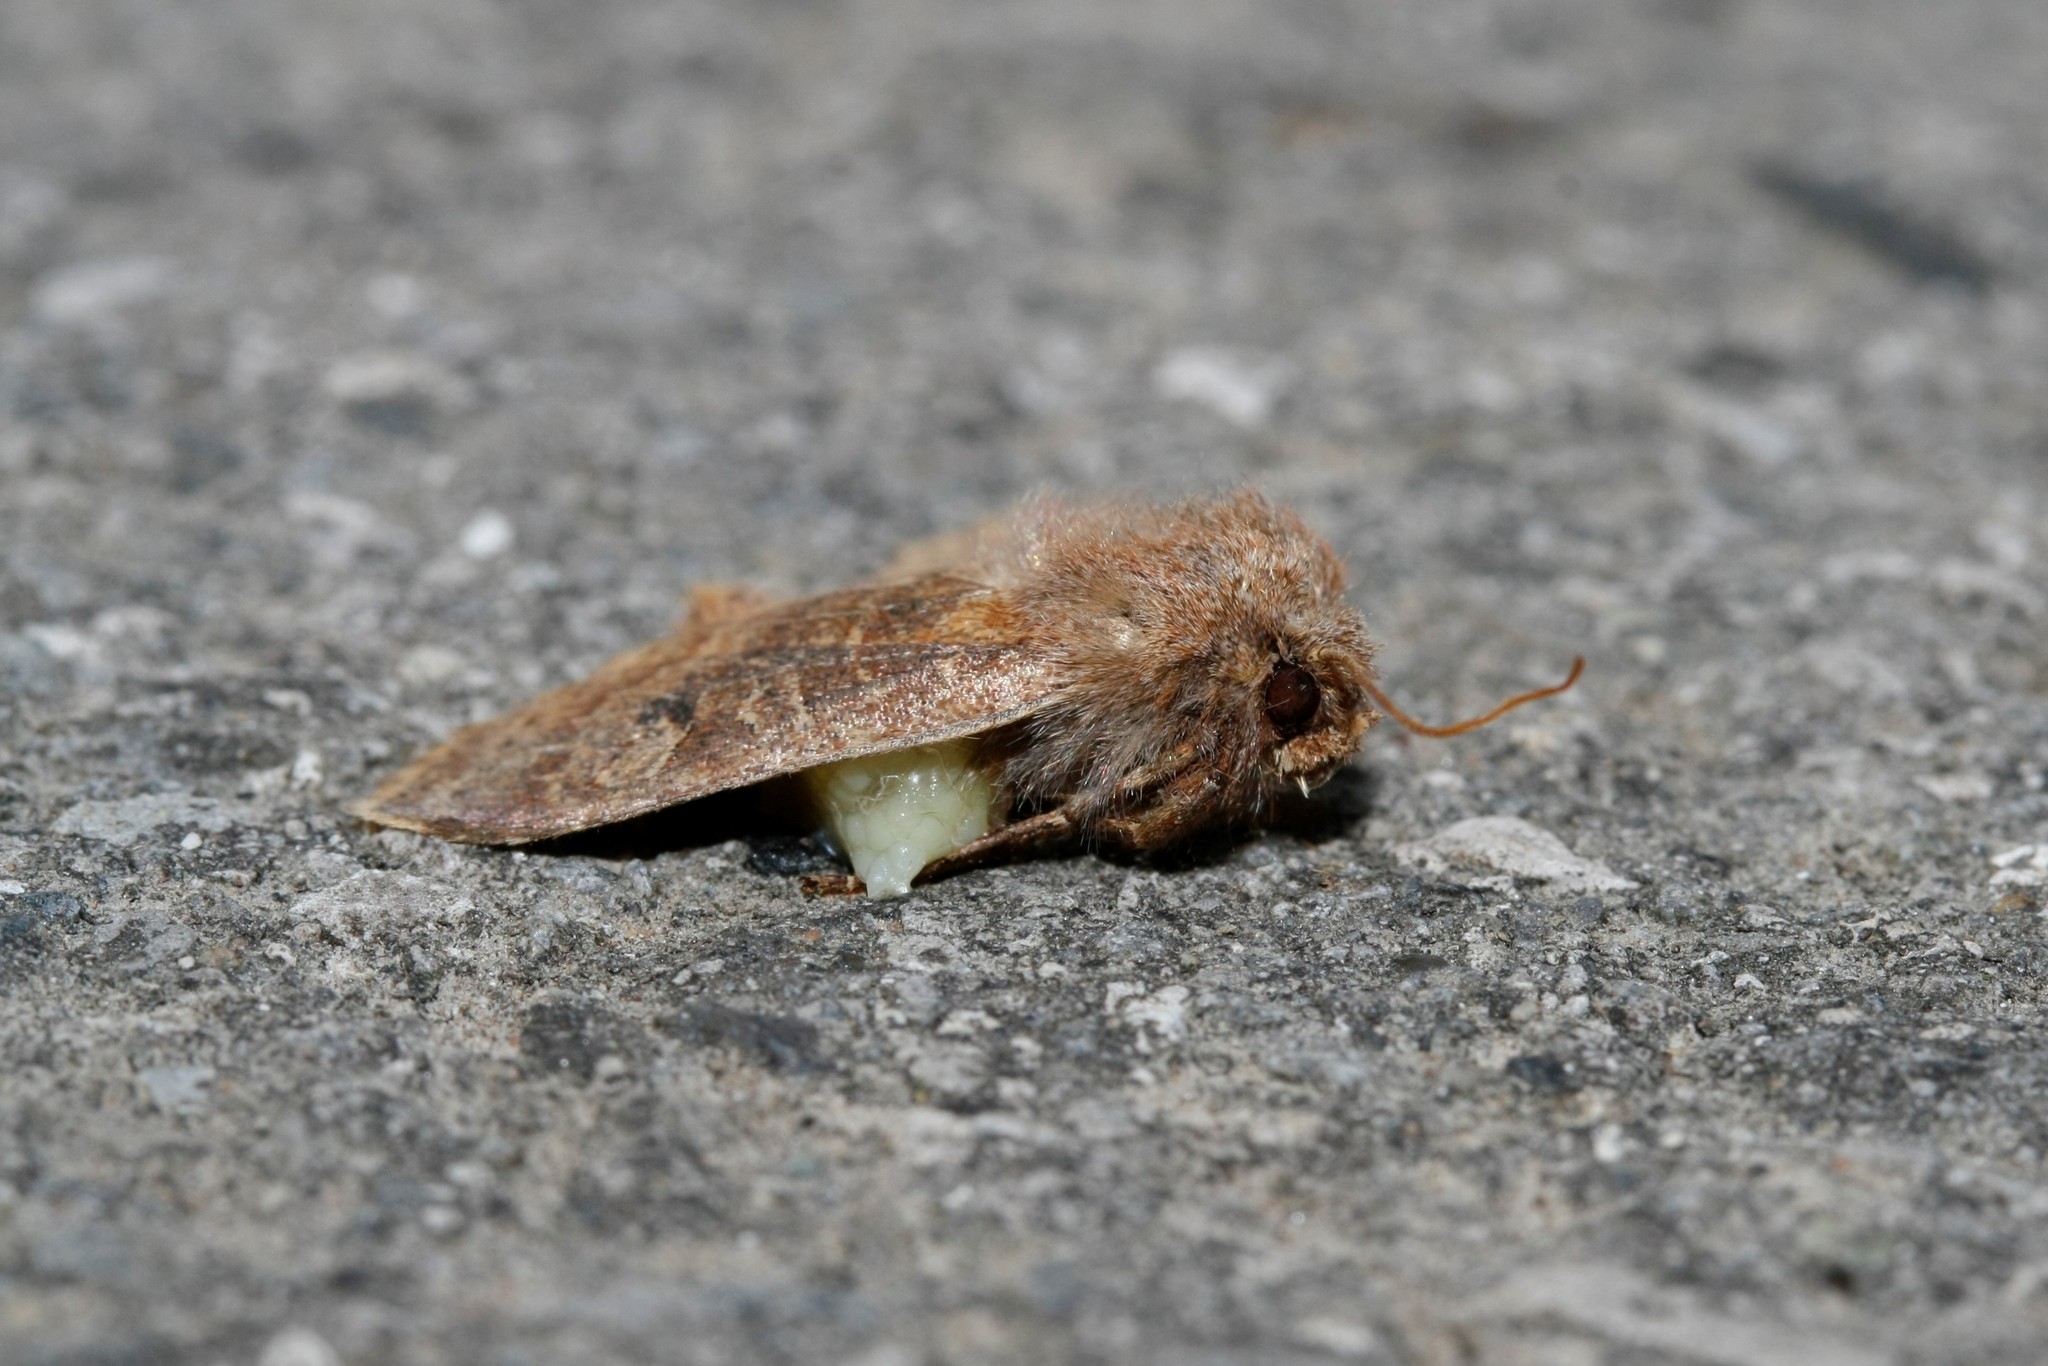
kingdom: Animalia
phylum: Arthropoda
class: Insecta
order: Lepidoptera
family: Noctuidae
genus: Conistra
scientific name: Conistra vaccinii
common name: Chestnut
